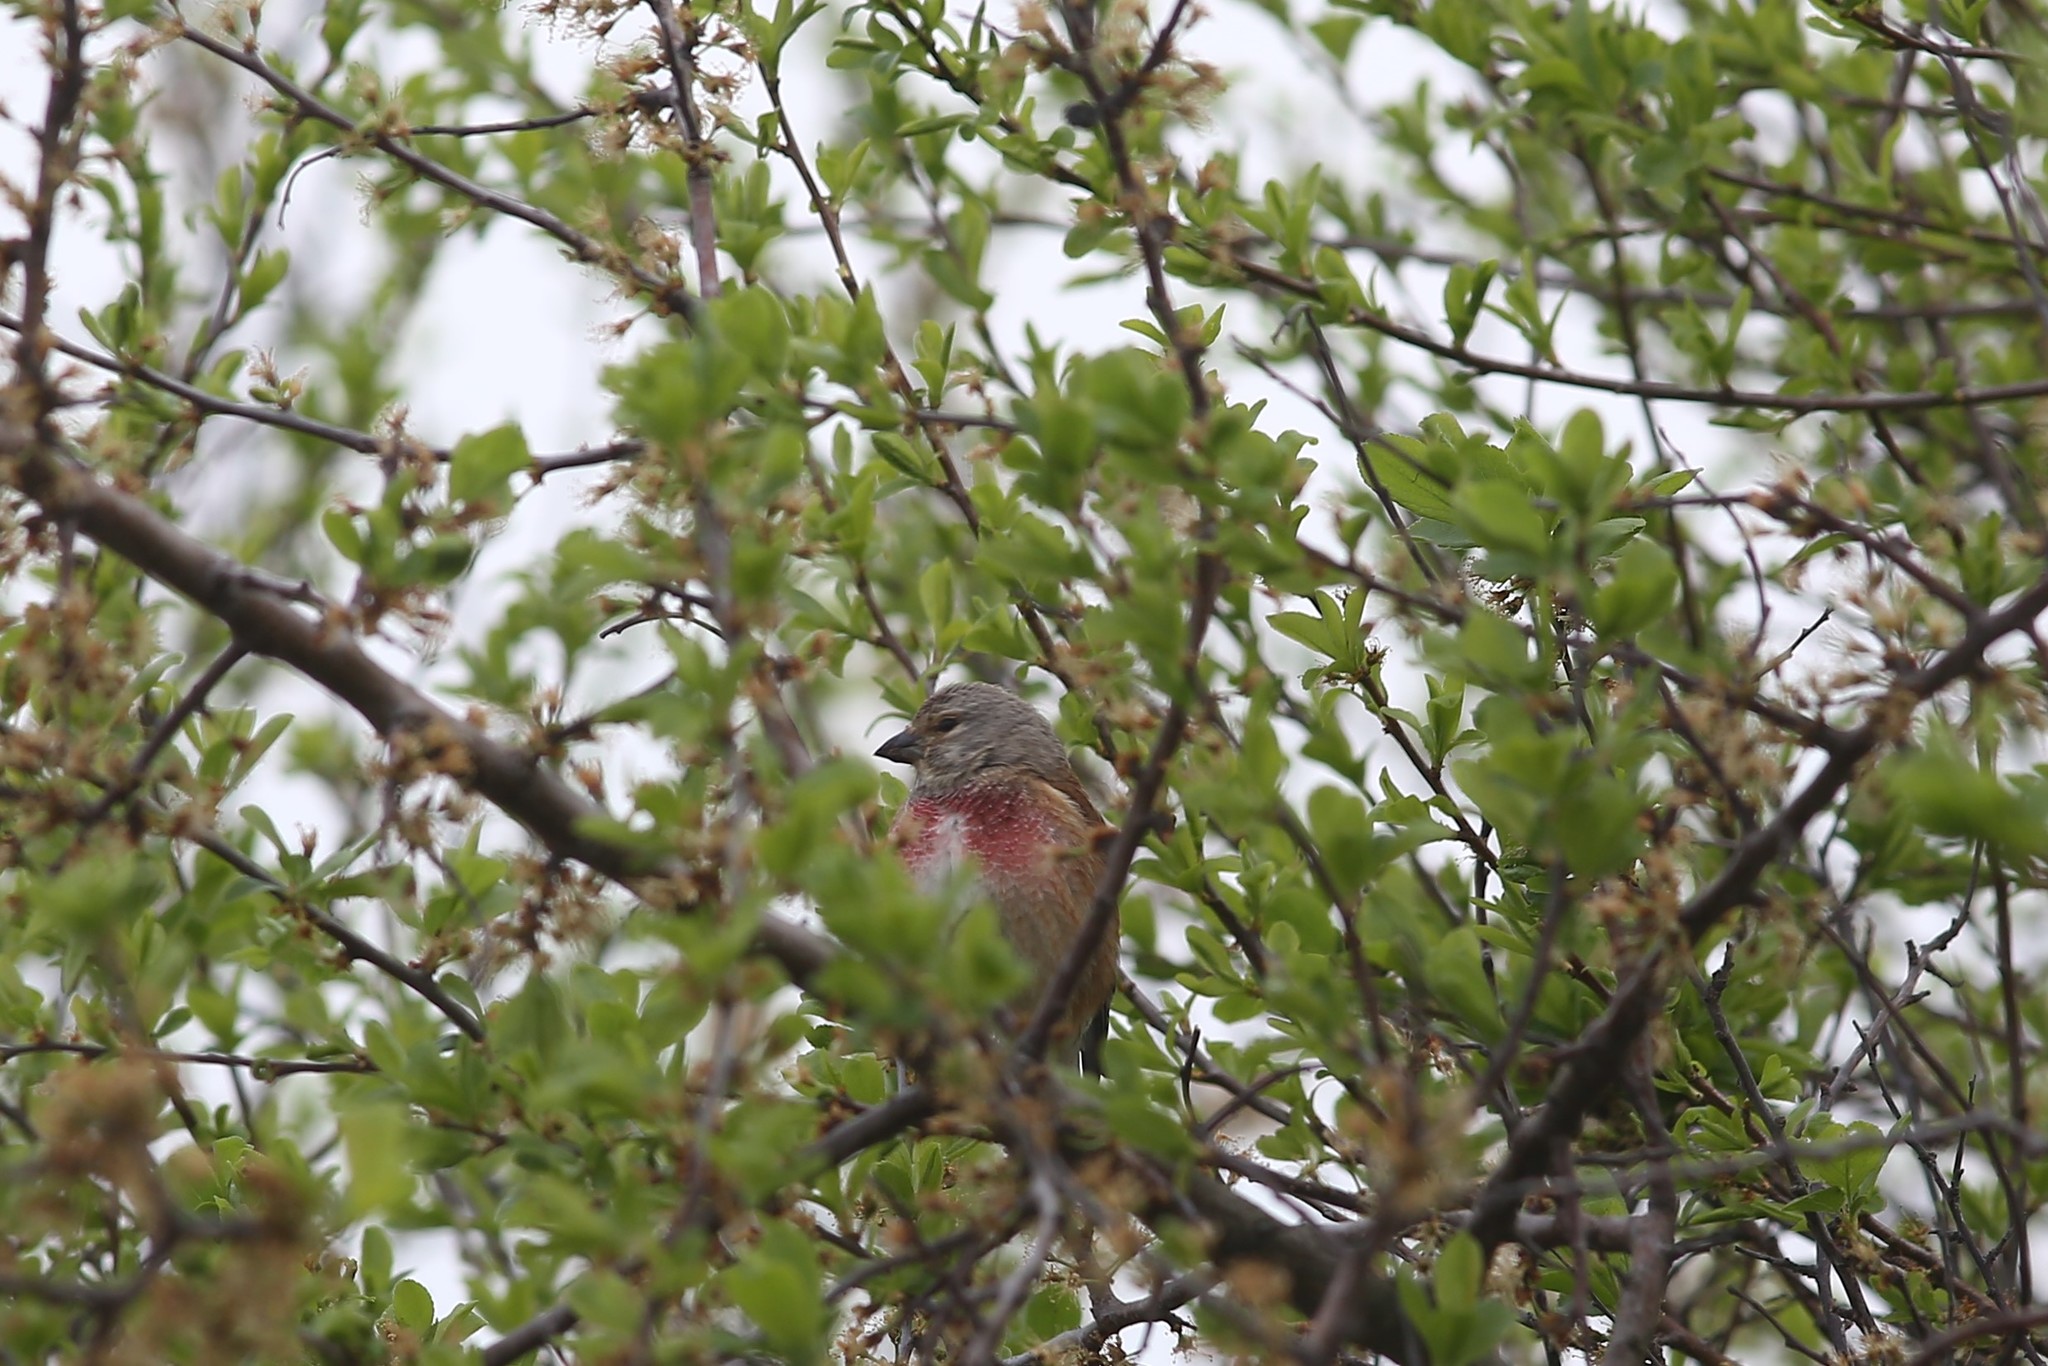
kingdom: Animalia
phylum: Chordata
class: Aves
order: Passeriformes
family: Fringillidae
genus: Linaria
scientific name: Linaria cannabina
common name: Common linnet
